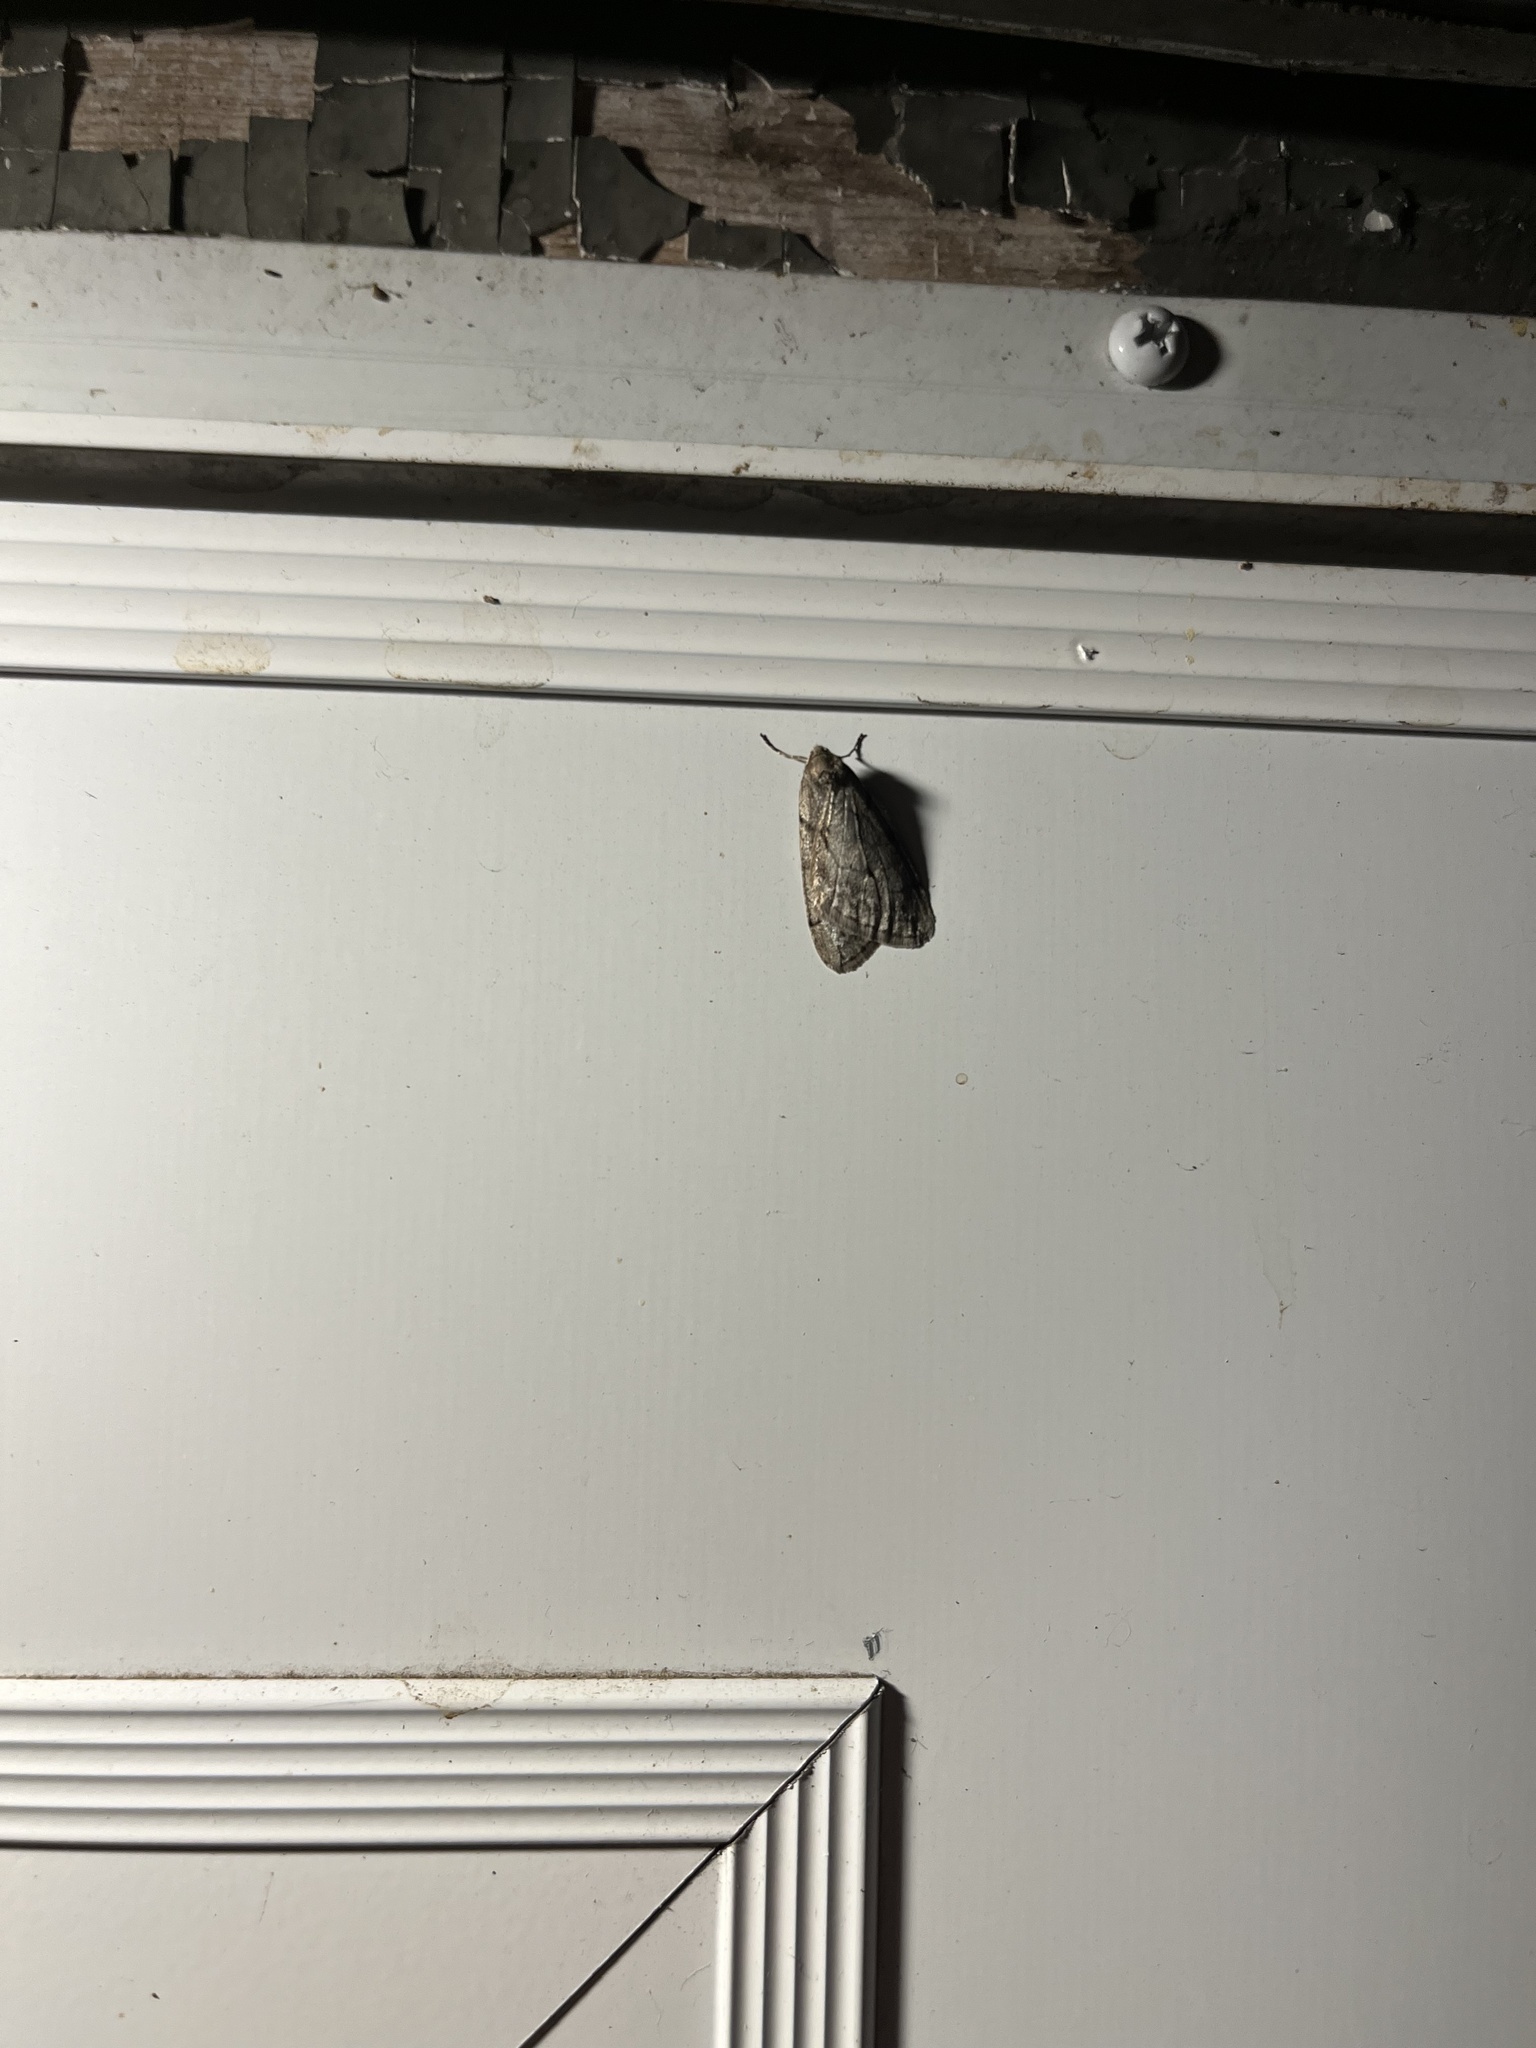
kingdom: Animalia
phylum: Arthropoda
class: Insecta
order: Lepidoptera
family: Geometridae
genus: Paleacrita
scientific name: Paleacrita vernata
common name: Spring cankerworm
